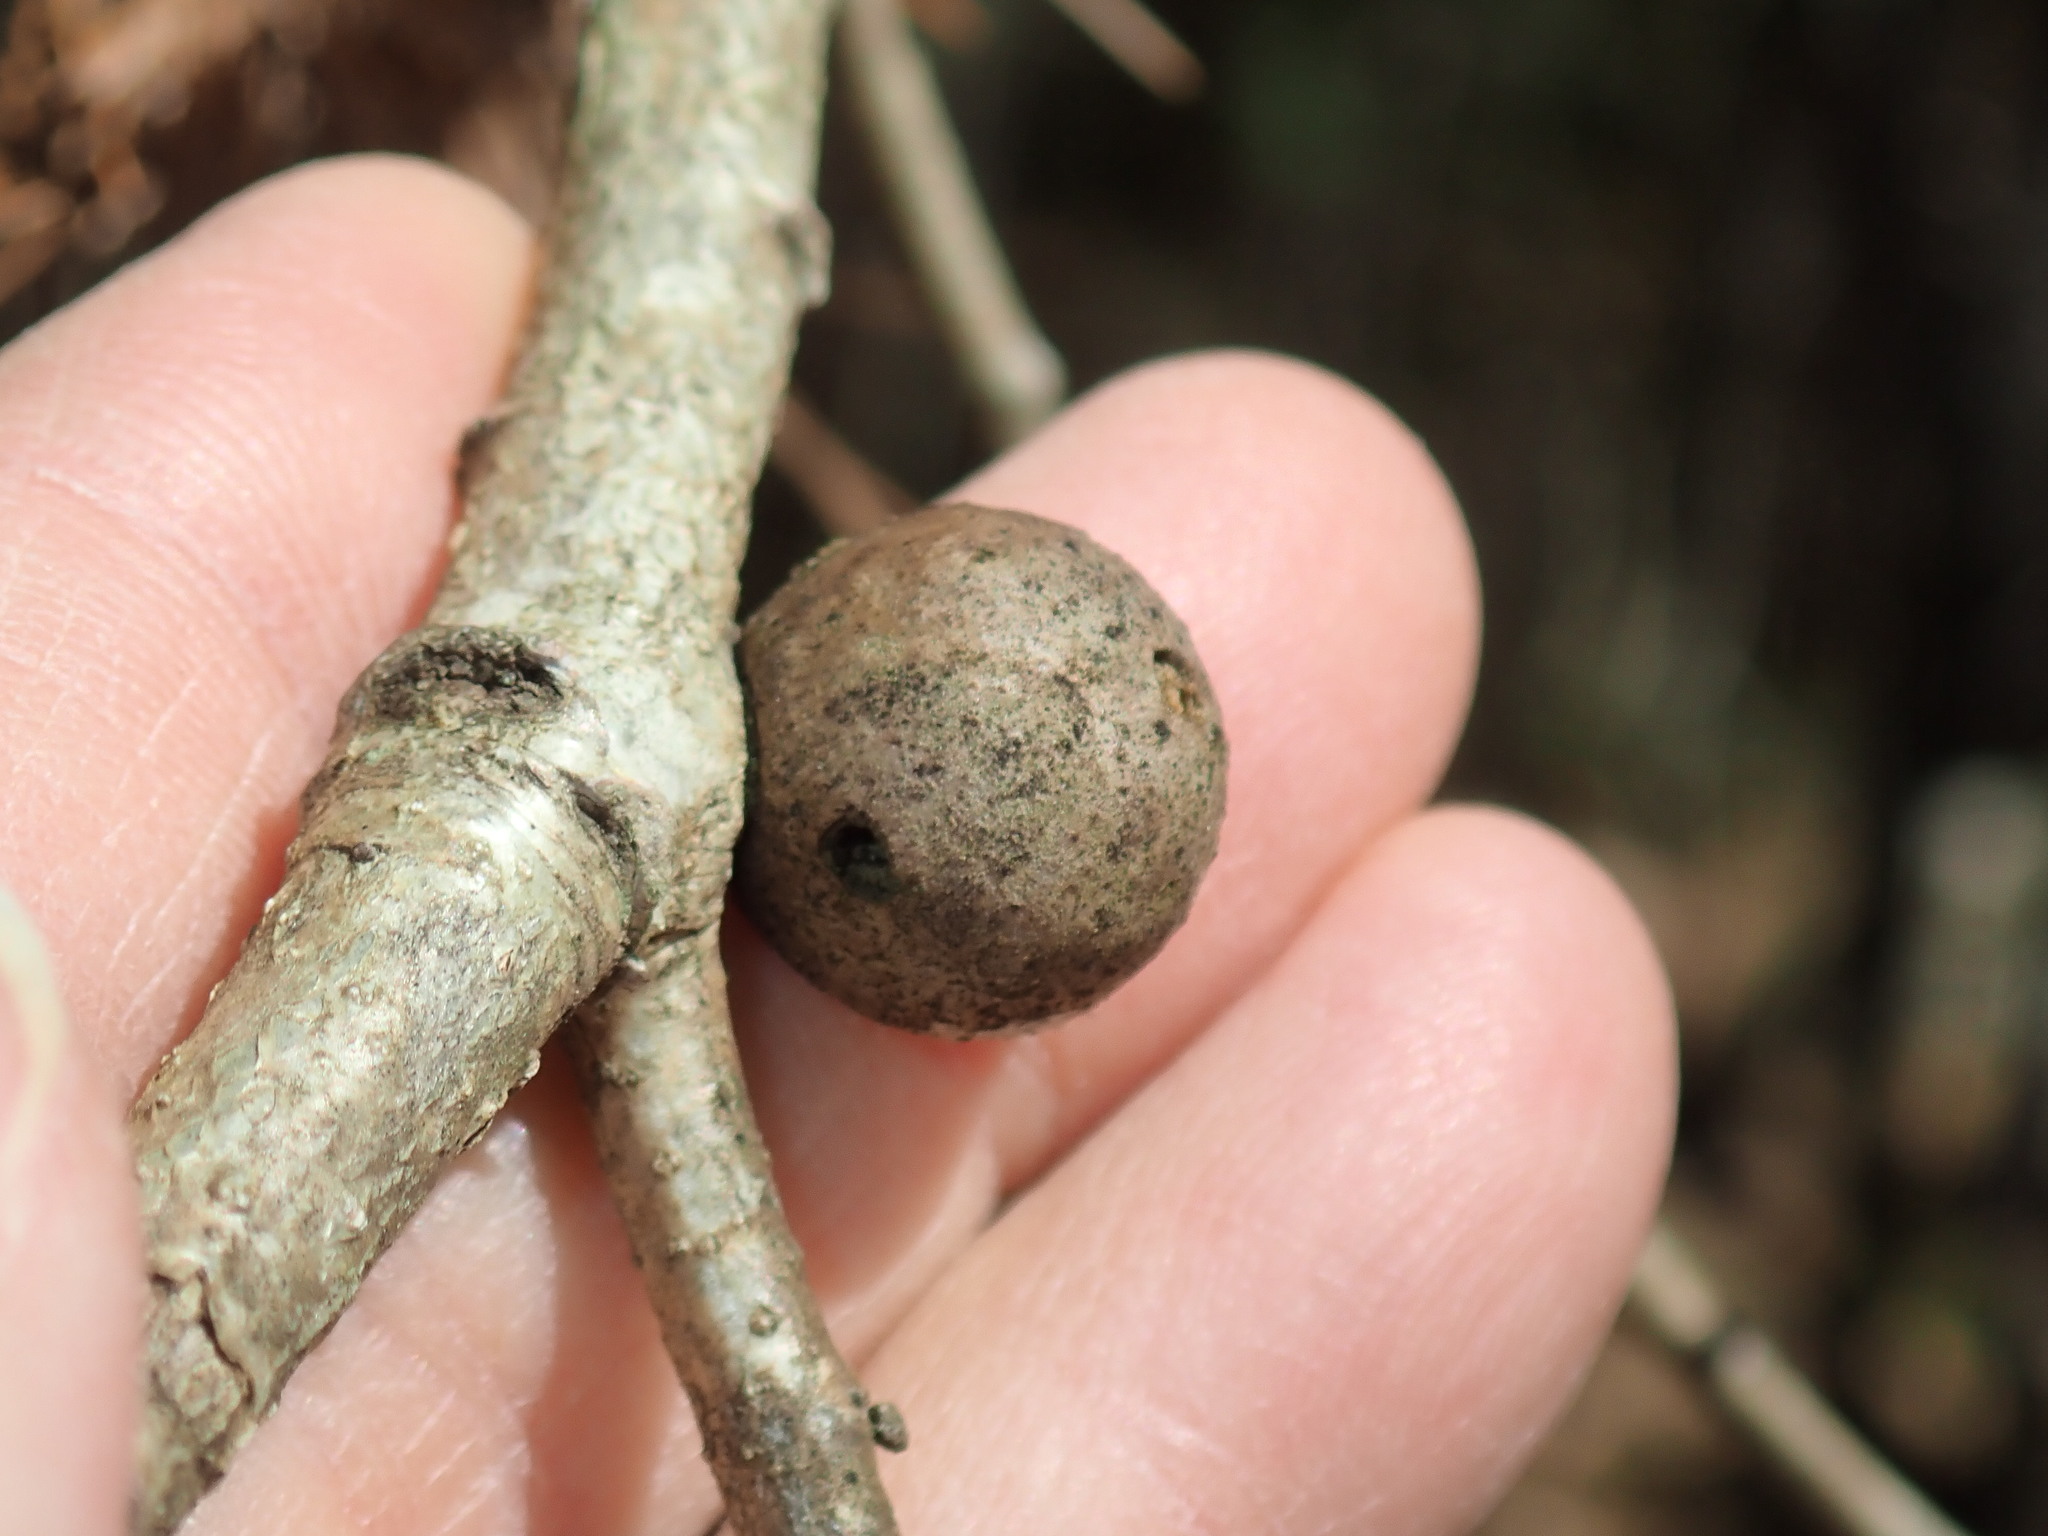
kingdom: Animalia
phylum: Arthropoda
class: Insecta
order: Hymenoptera
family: Cynipidae
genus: Disholcaspis
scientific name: Disholcaspis quercusglobulus
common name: Round bullet gall wasp
